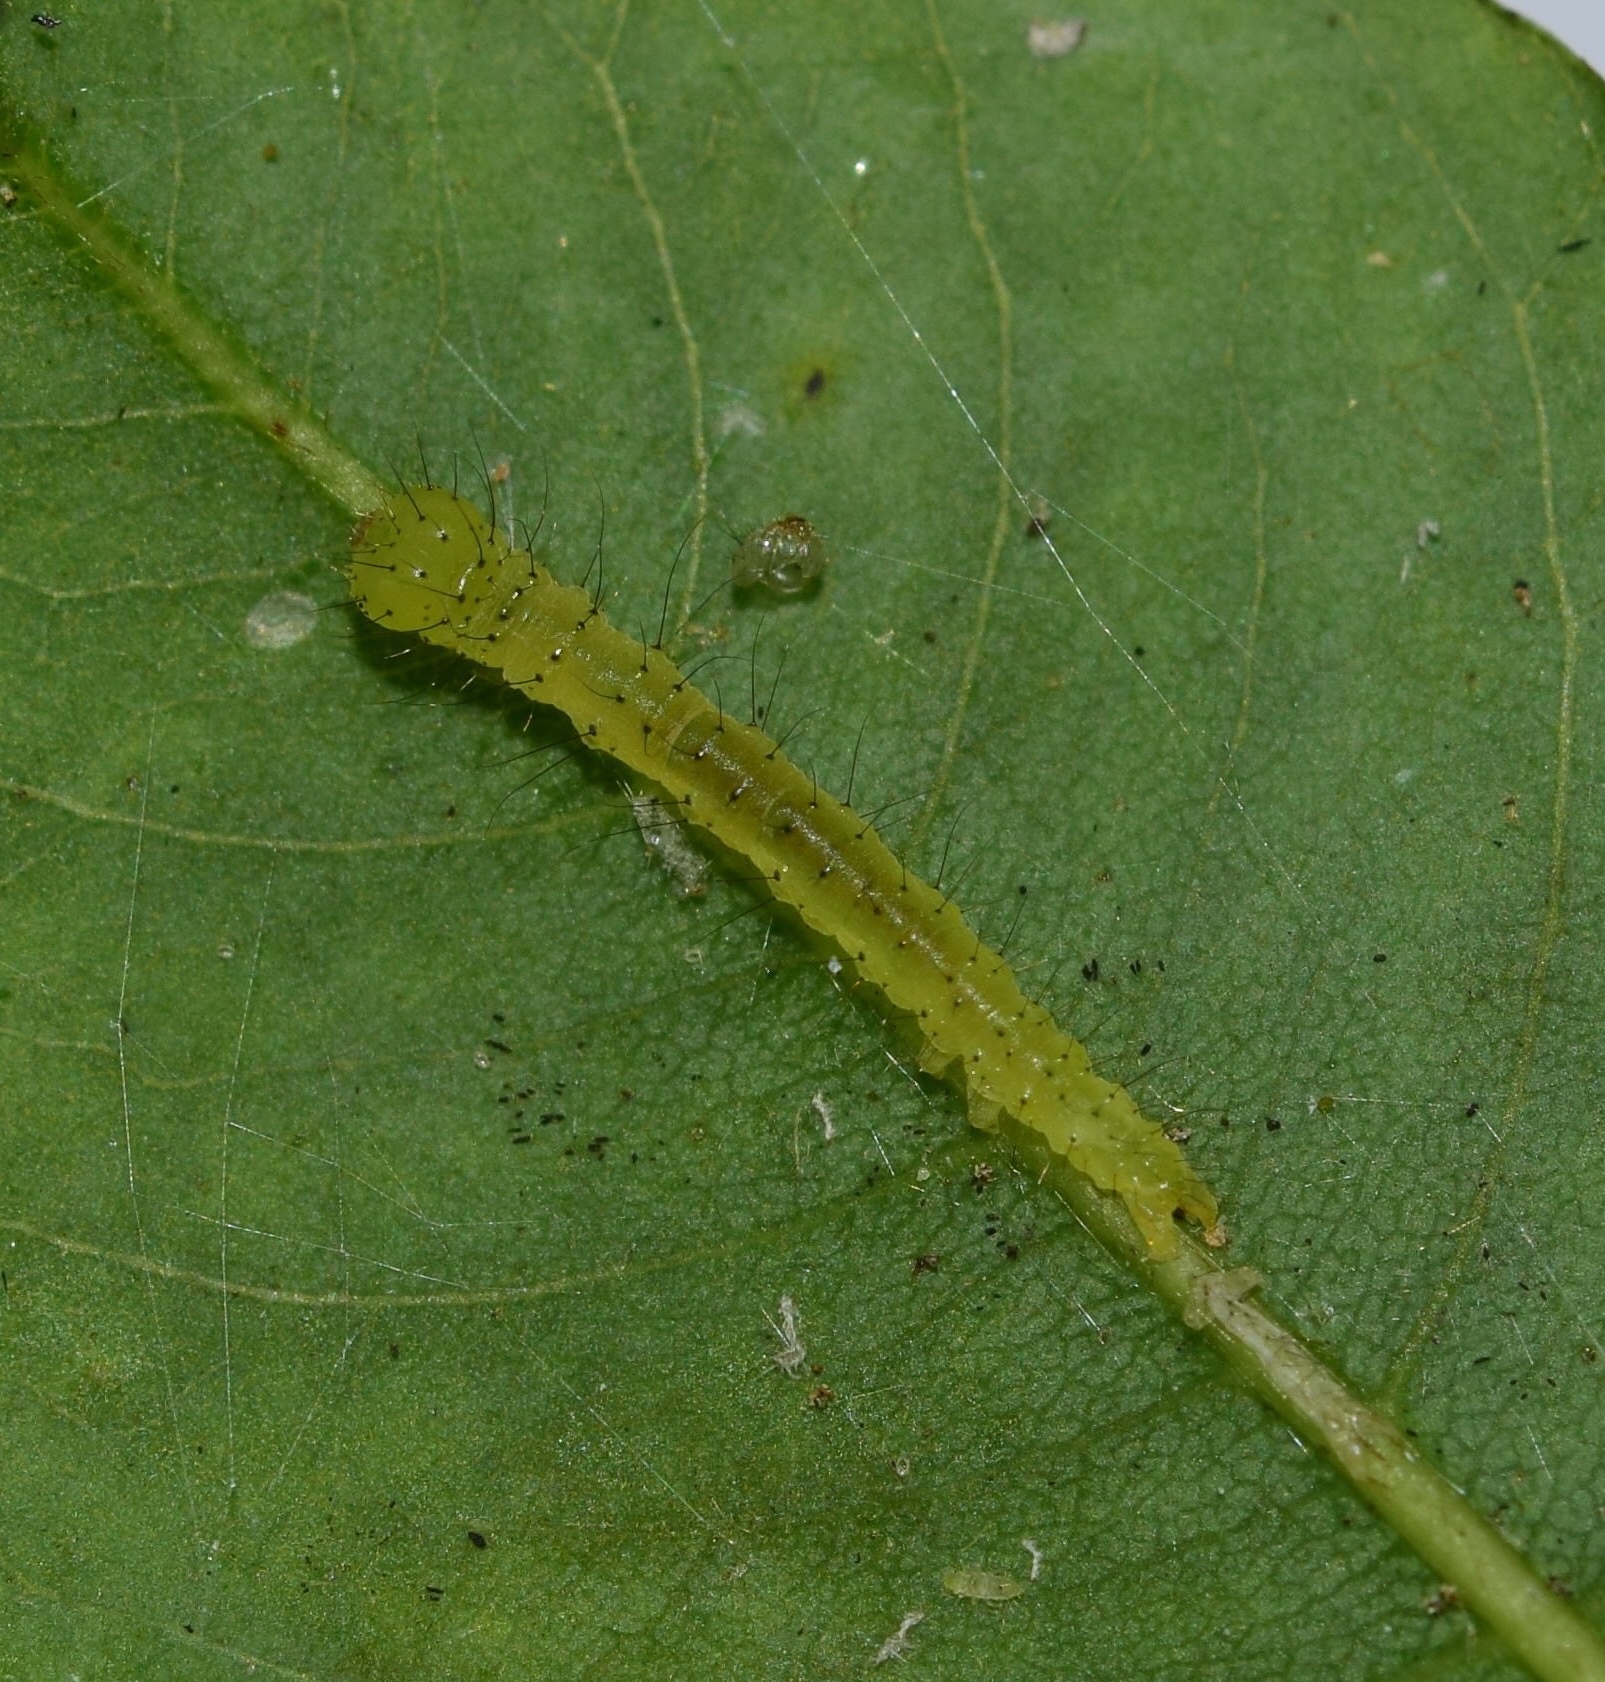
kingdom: Animalia
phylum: Arthropoda
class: Insecta
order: Lepidoptera
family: Erebidae
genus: Bertula
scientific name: Bertula inconspicua
